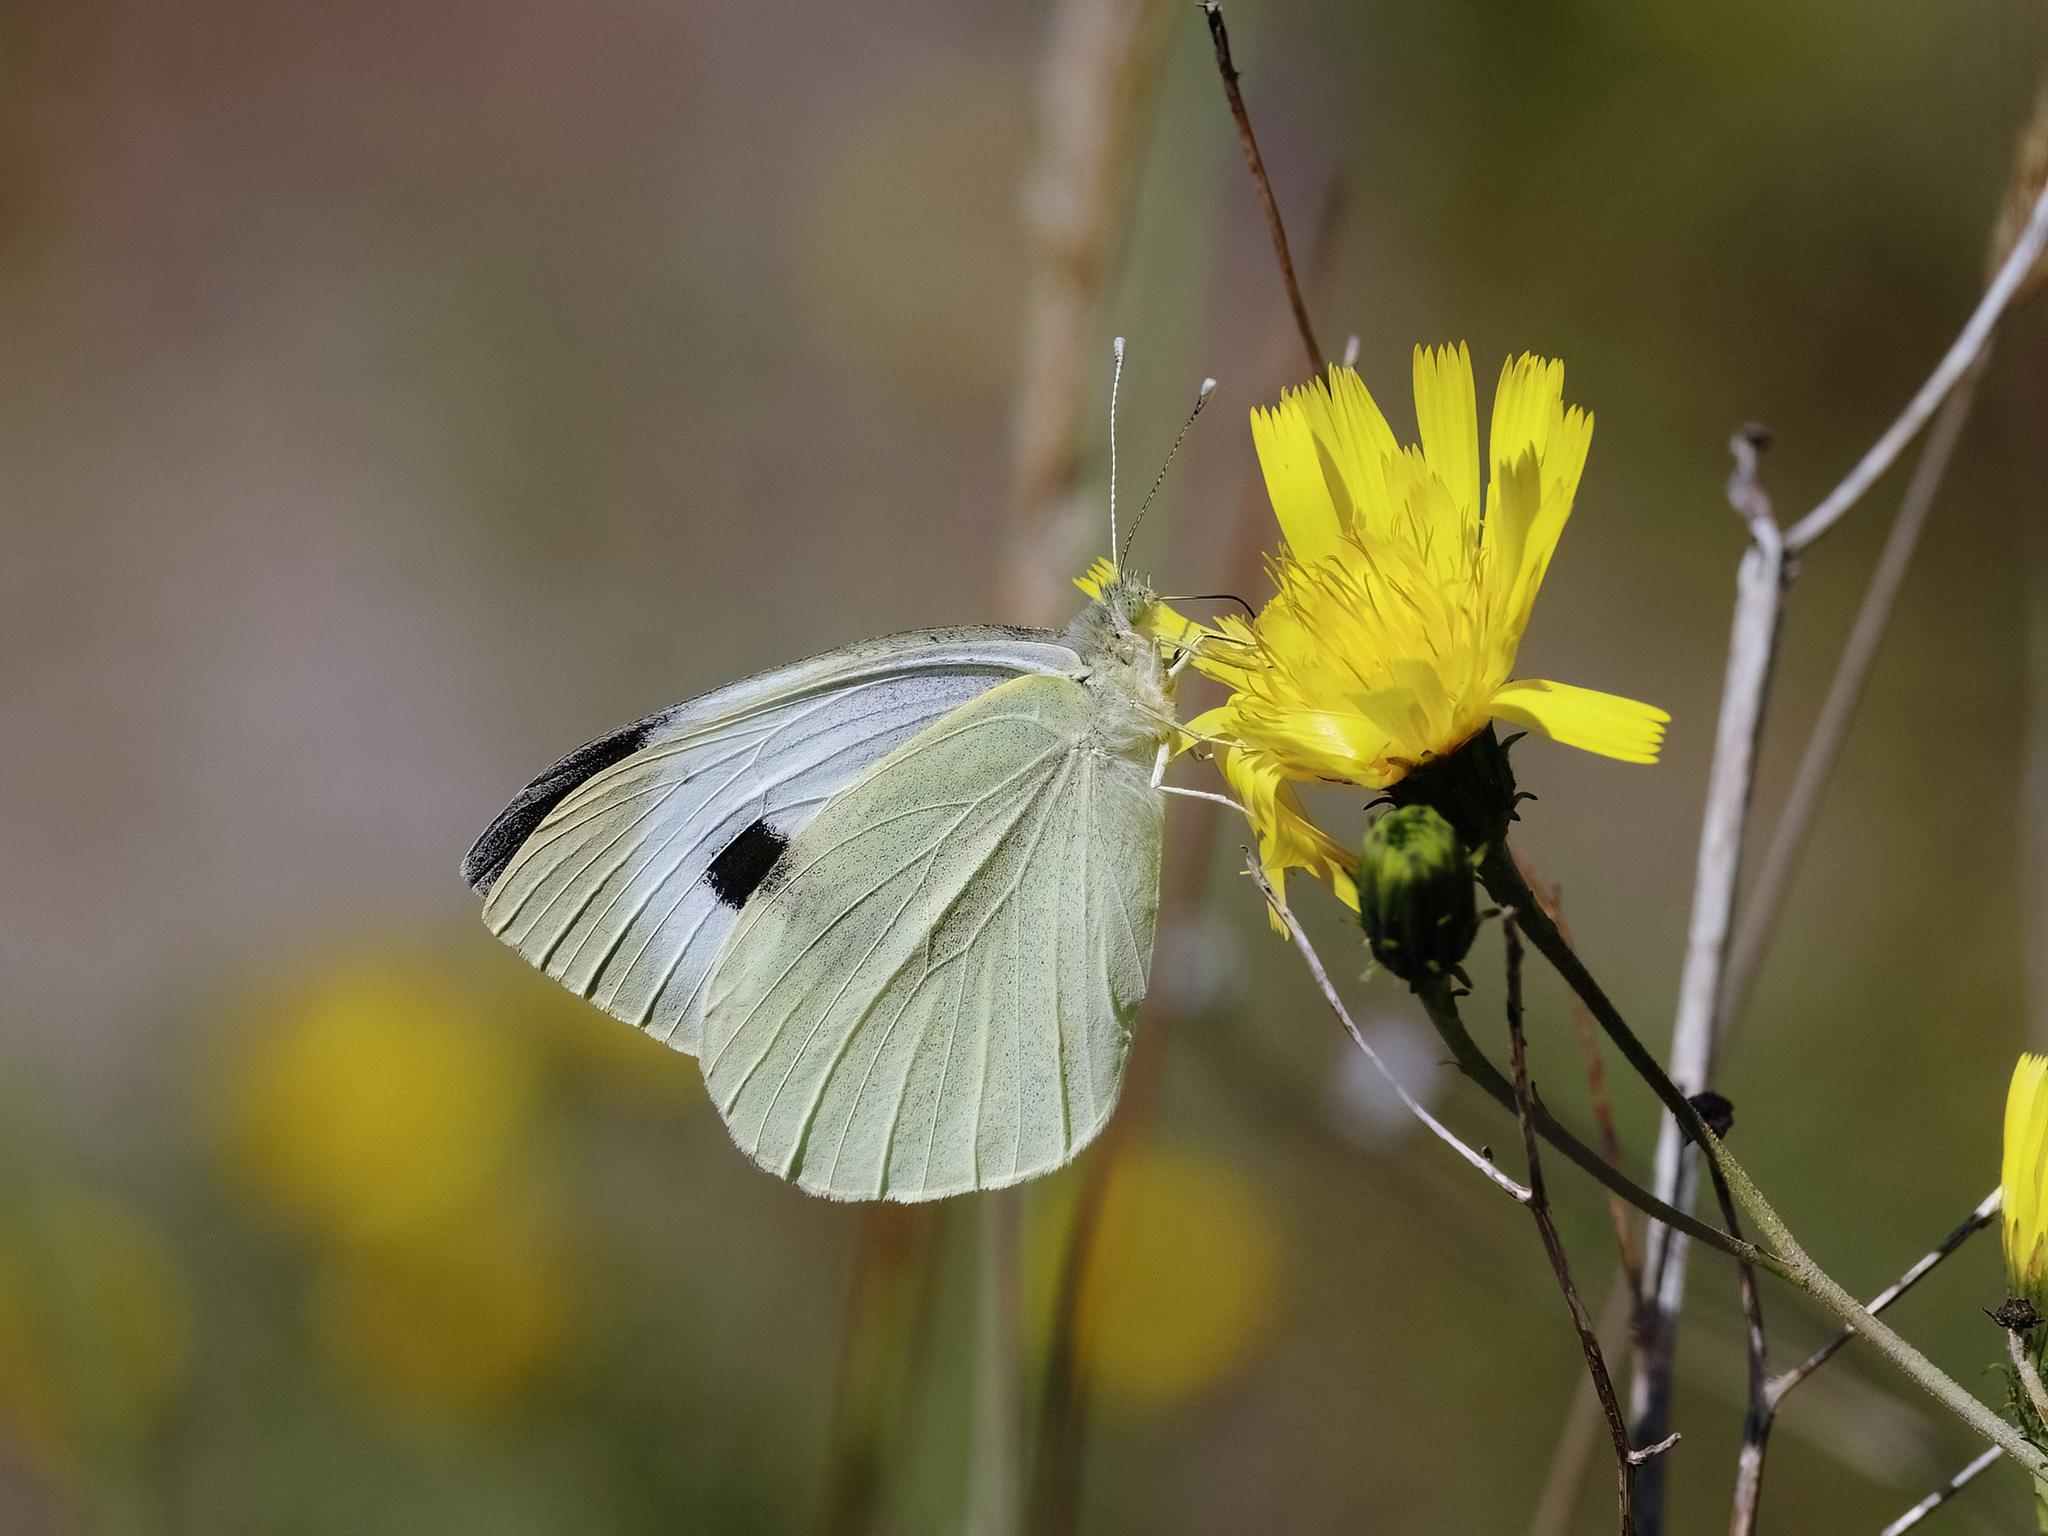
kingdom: Animalia
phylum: Arthropoda
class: Insecta
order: Lepidoptera
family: Pieridae
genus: Pieris
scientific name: Pieris brassicae
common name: Large white
